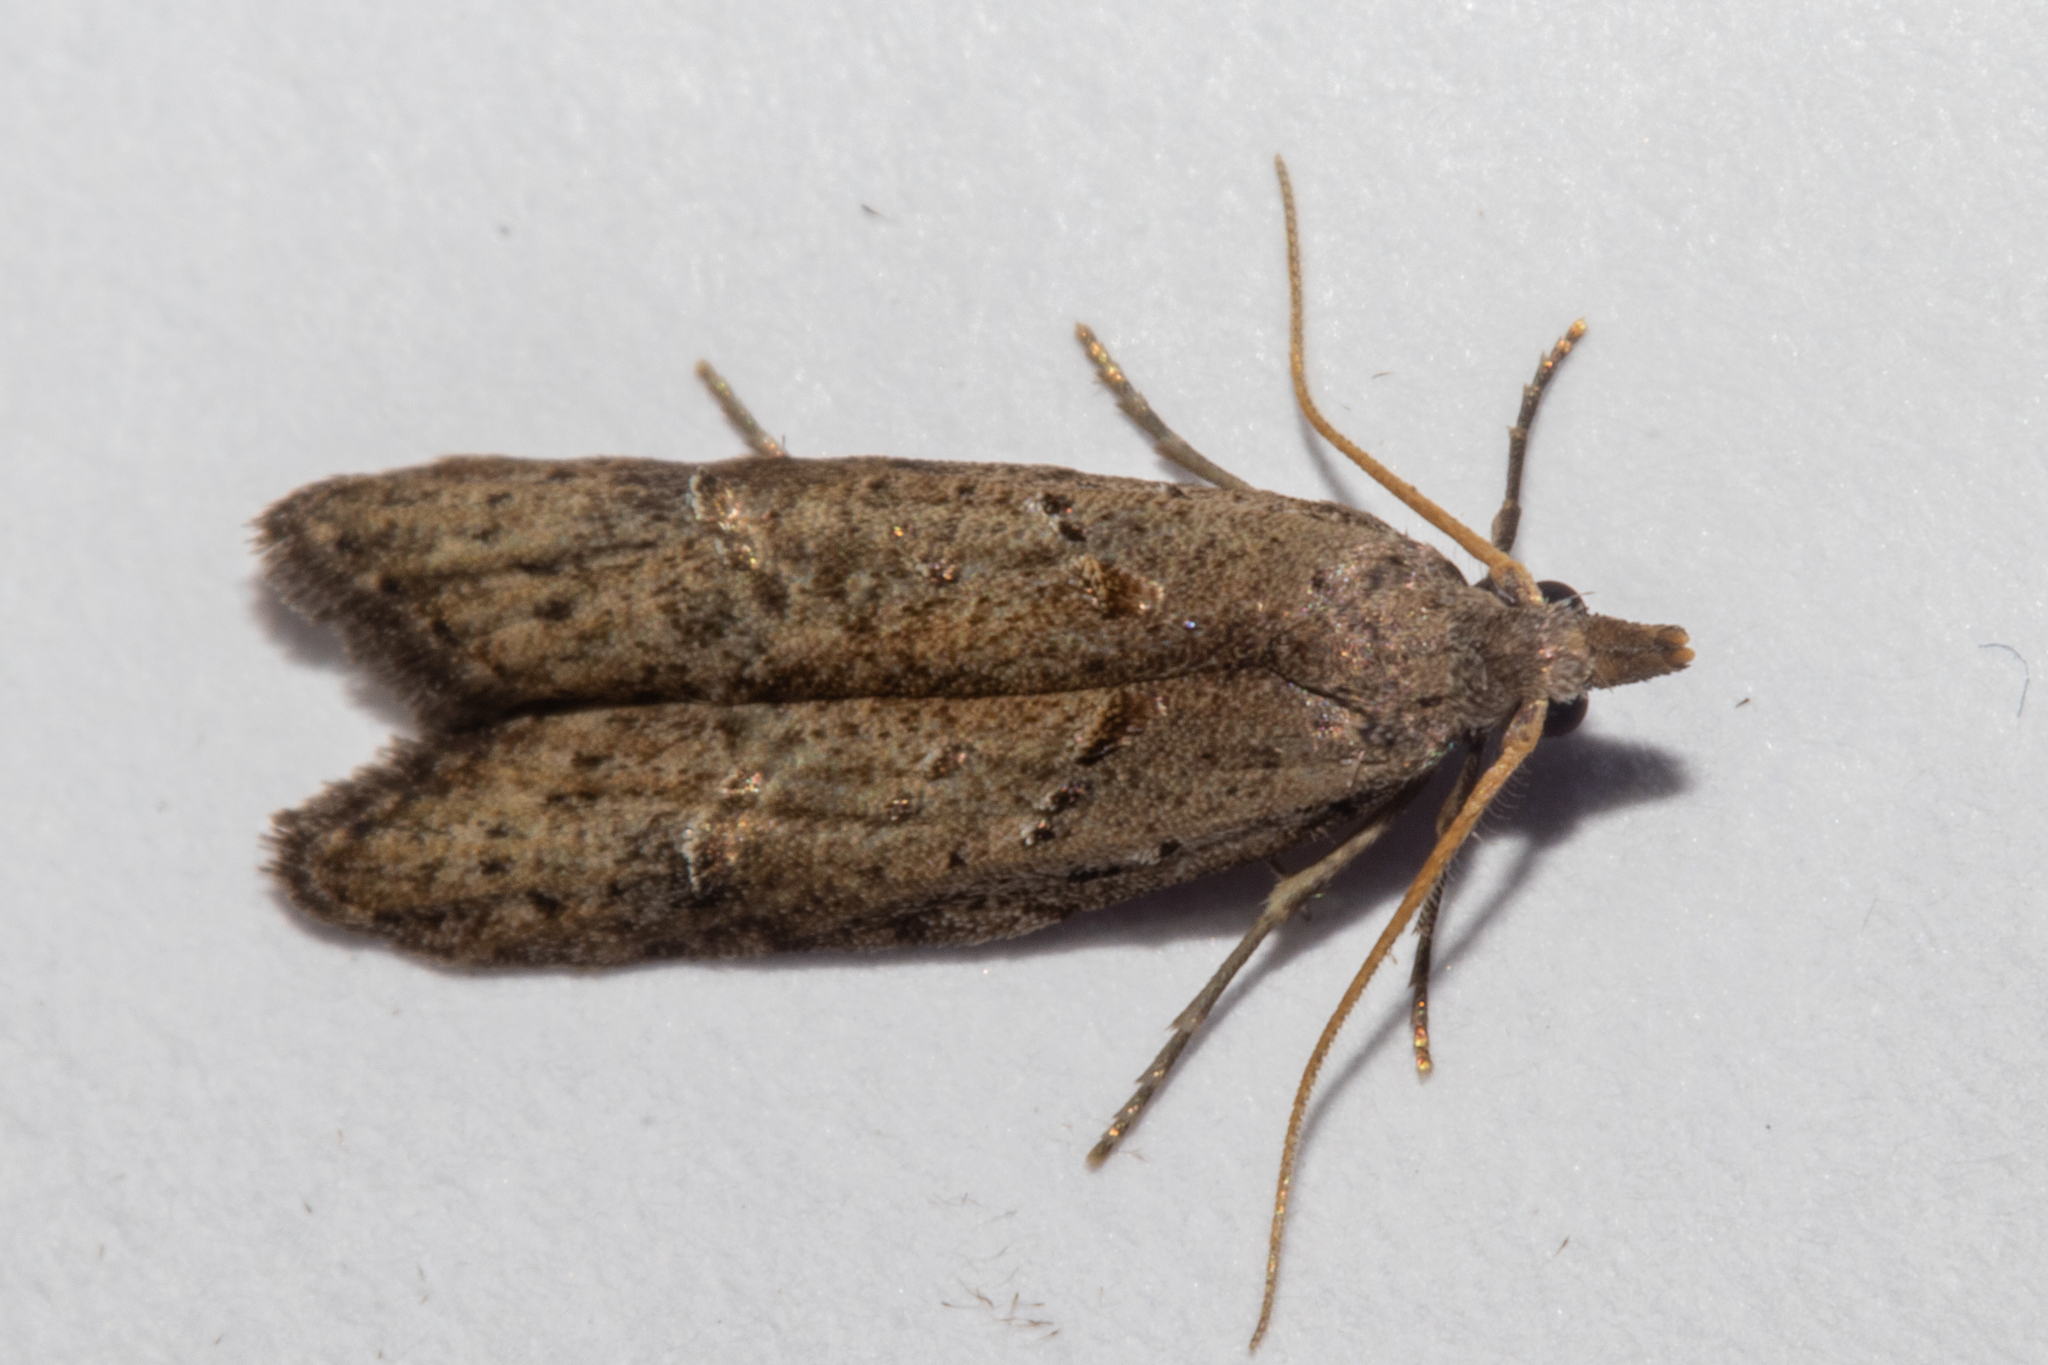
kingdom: Animalia
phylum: Arthropoda
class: Insecta
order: Lepidoptera
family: Carposinidae
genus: Carposina
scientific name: Carposina rubophaga
